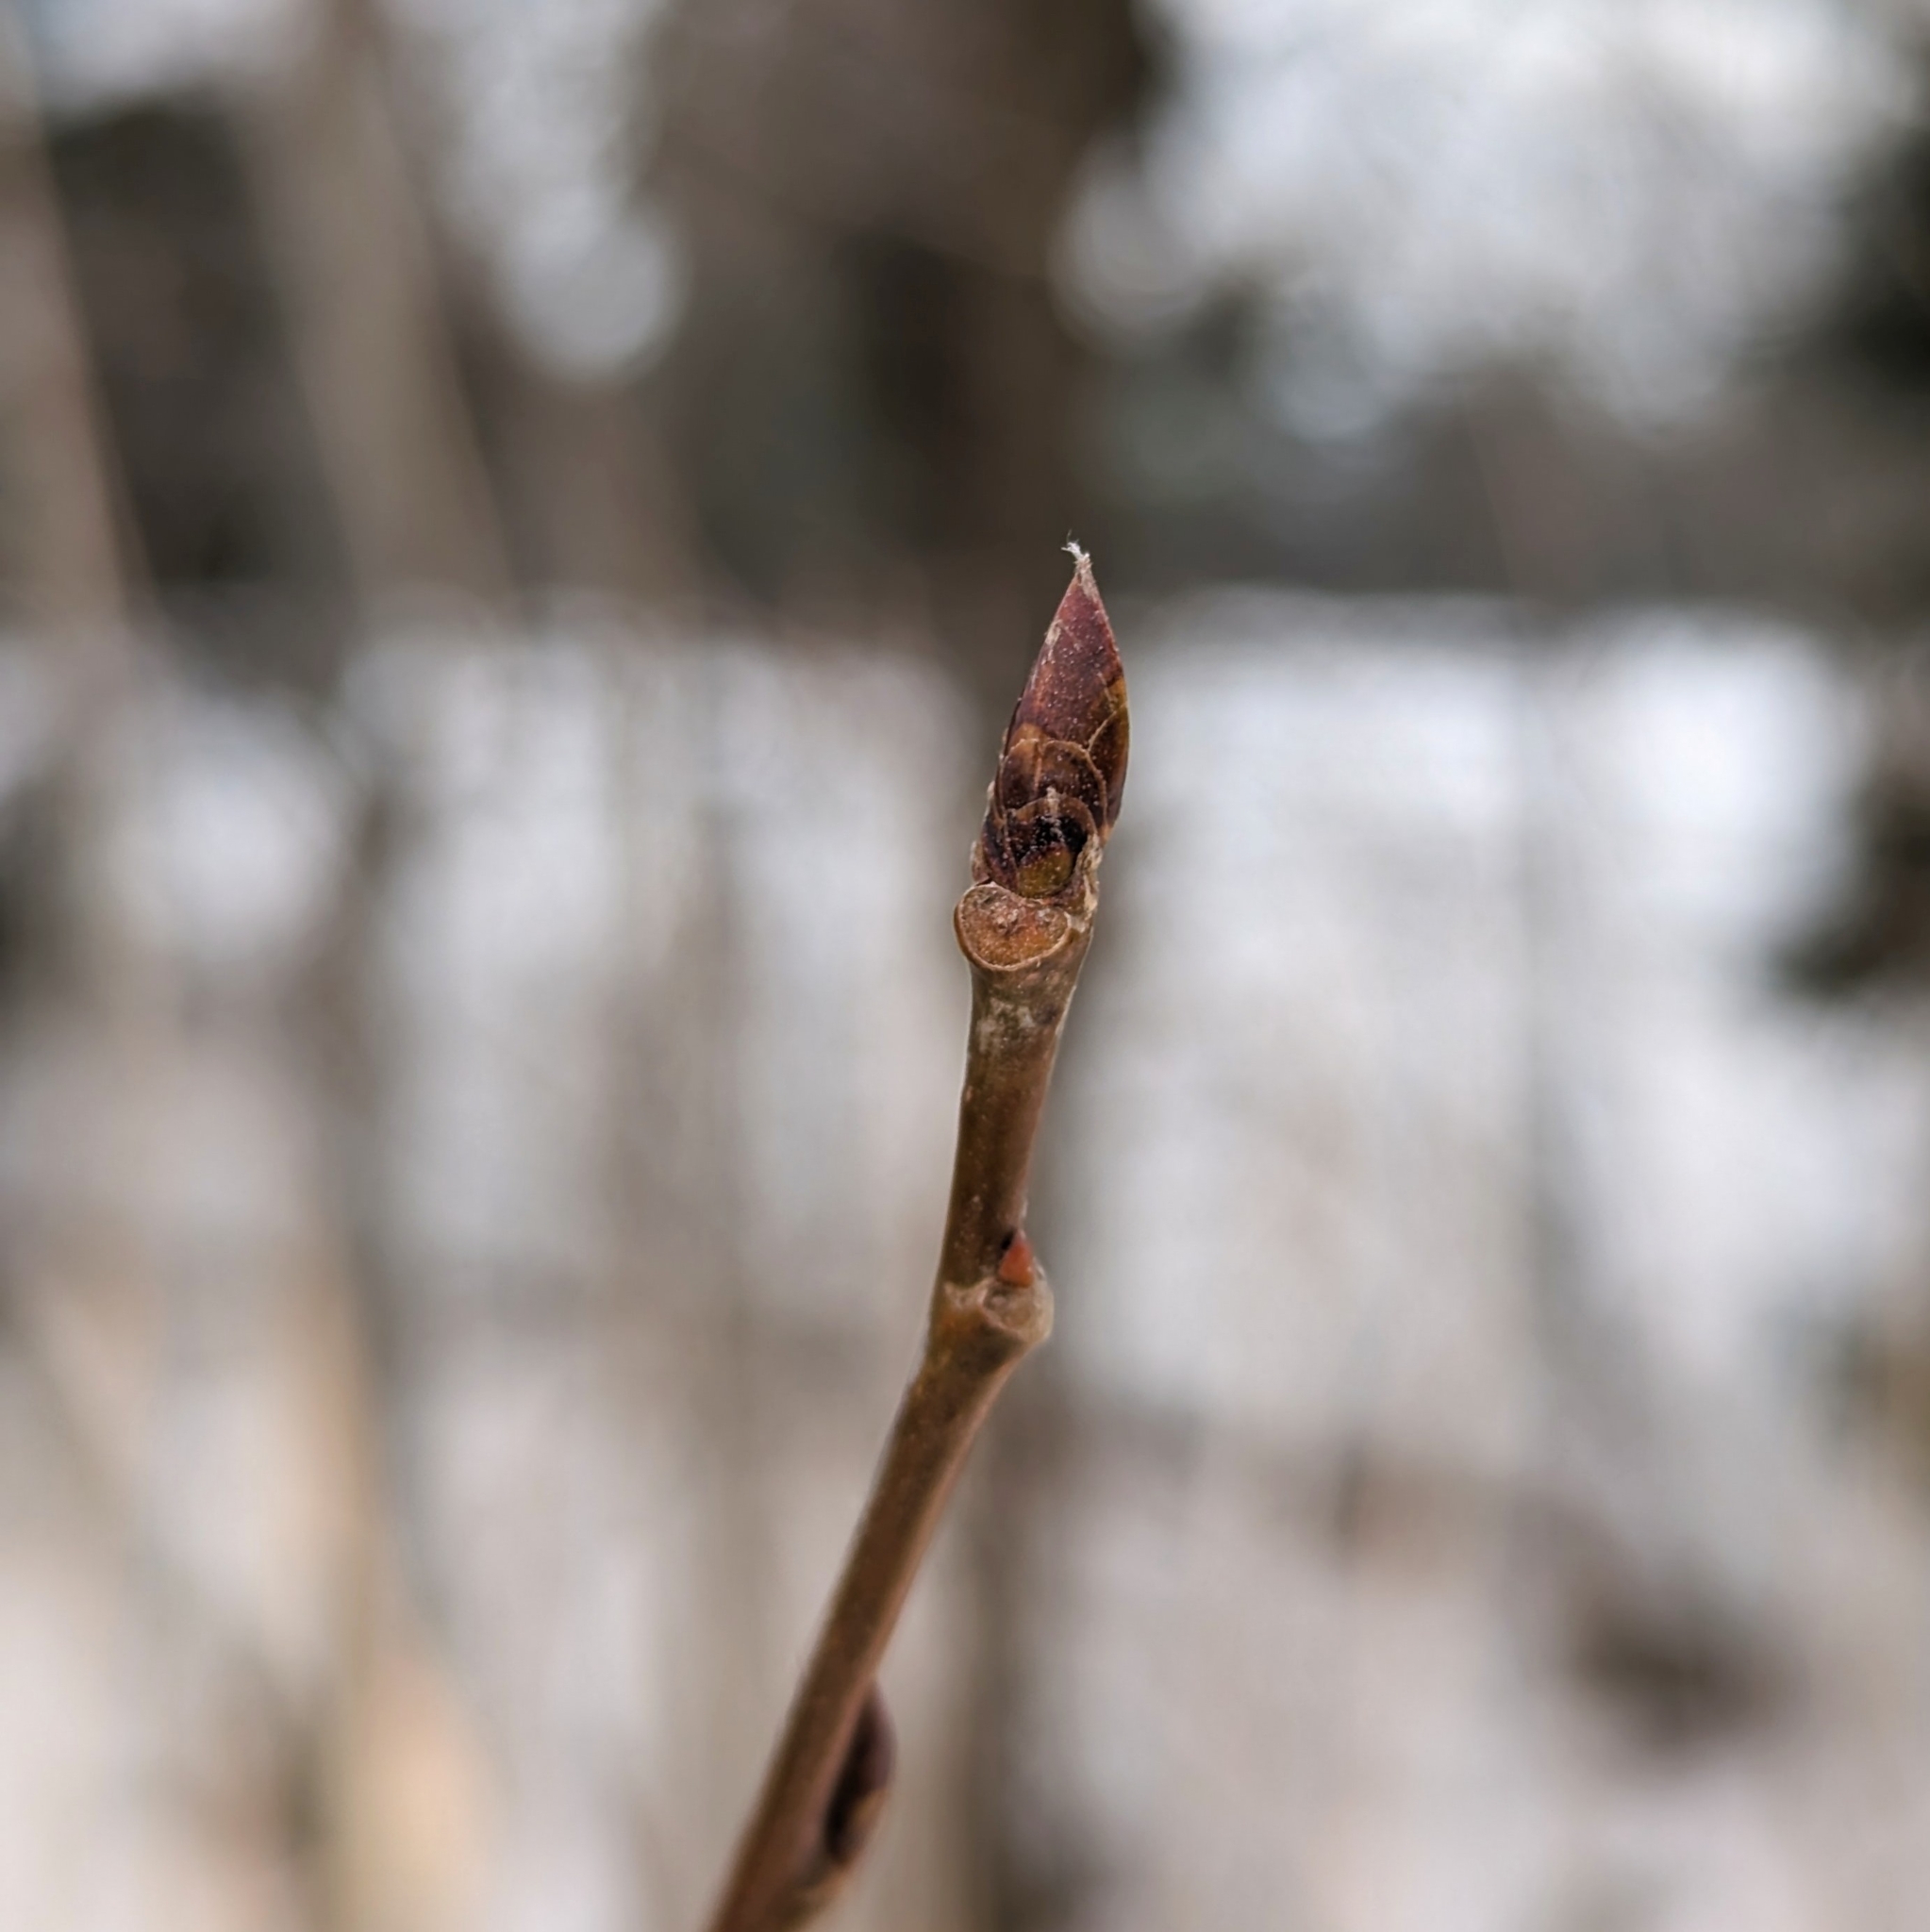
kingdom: Plantae
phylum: Tracheophyta
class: Magnoliopsida
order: Malpighiales
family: Salicaceae
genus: Populus
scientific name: Populus tremuloides
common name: Quaking aspen
